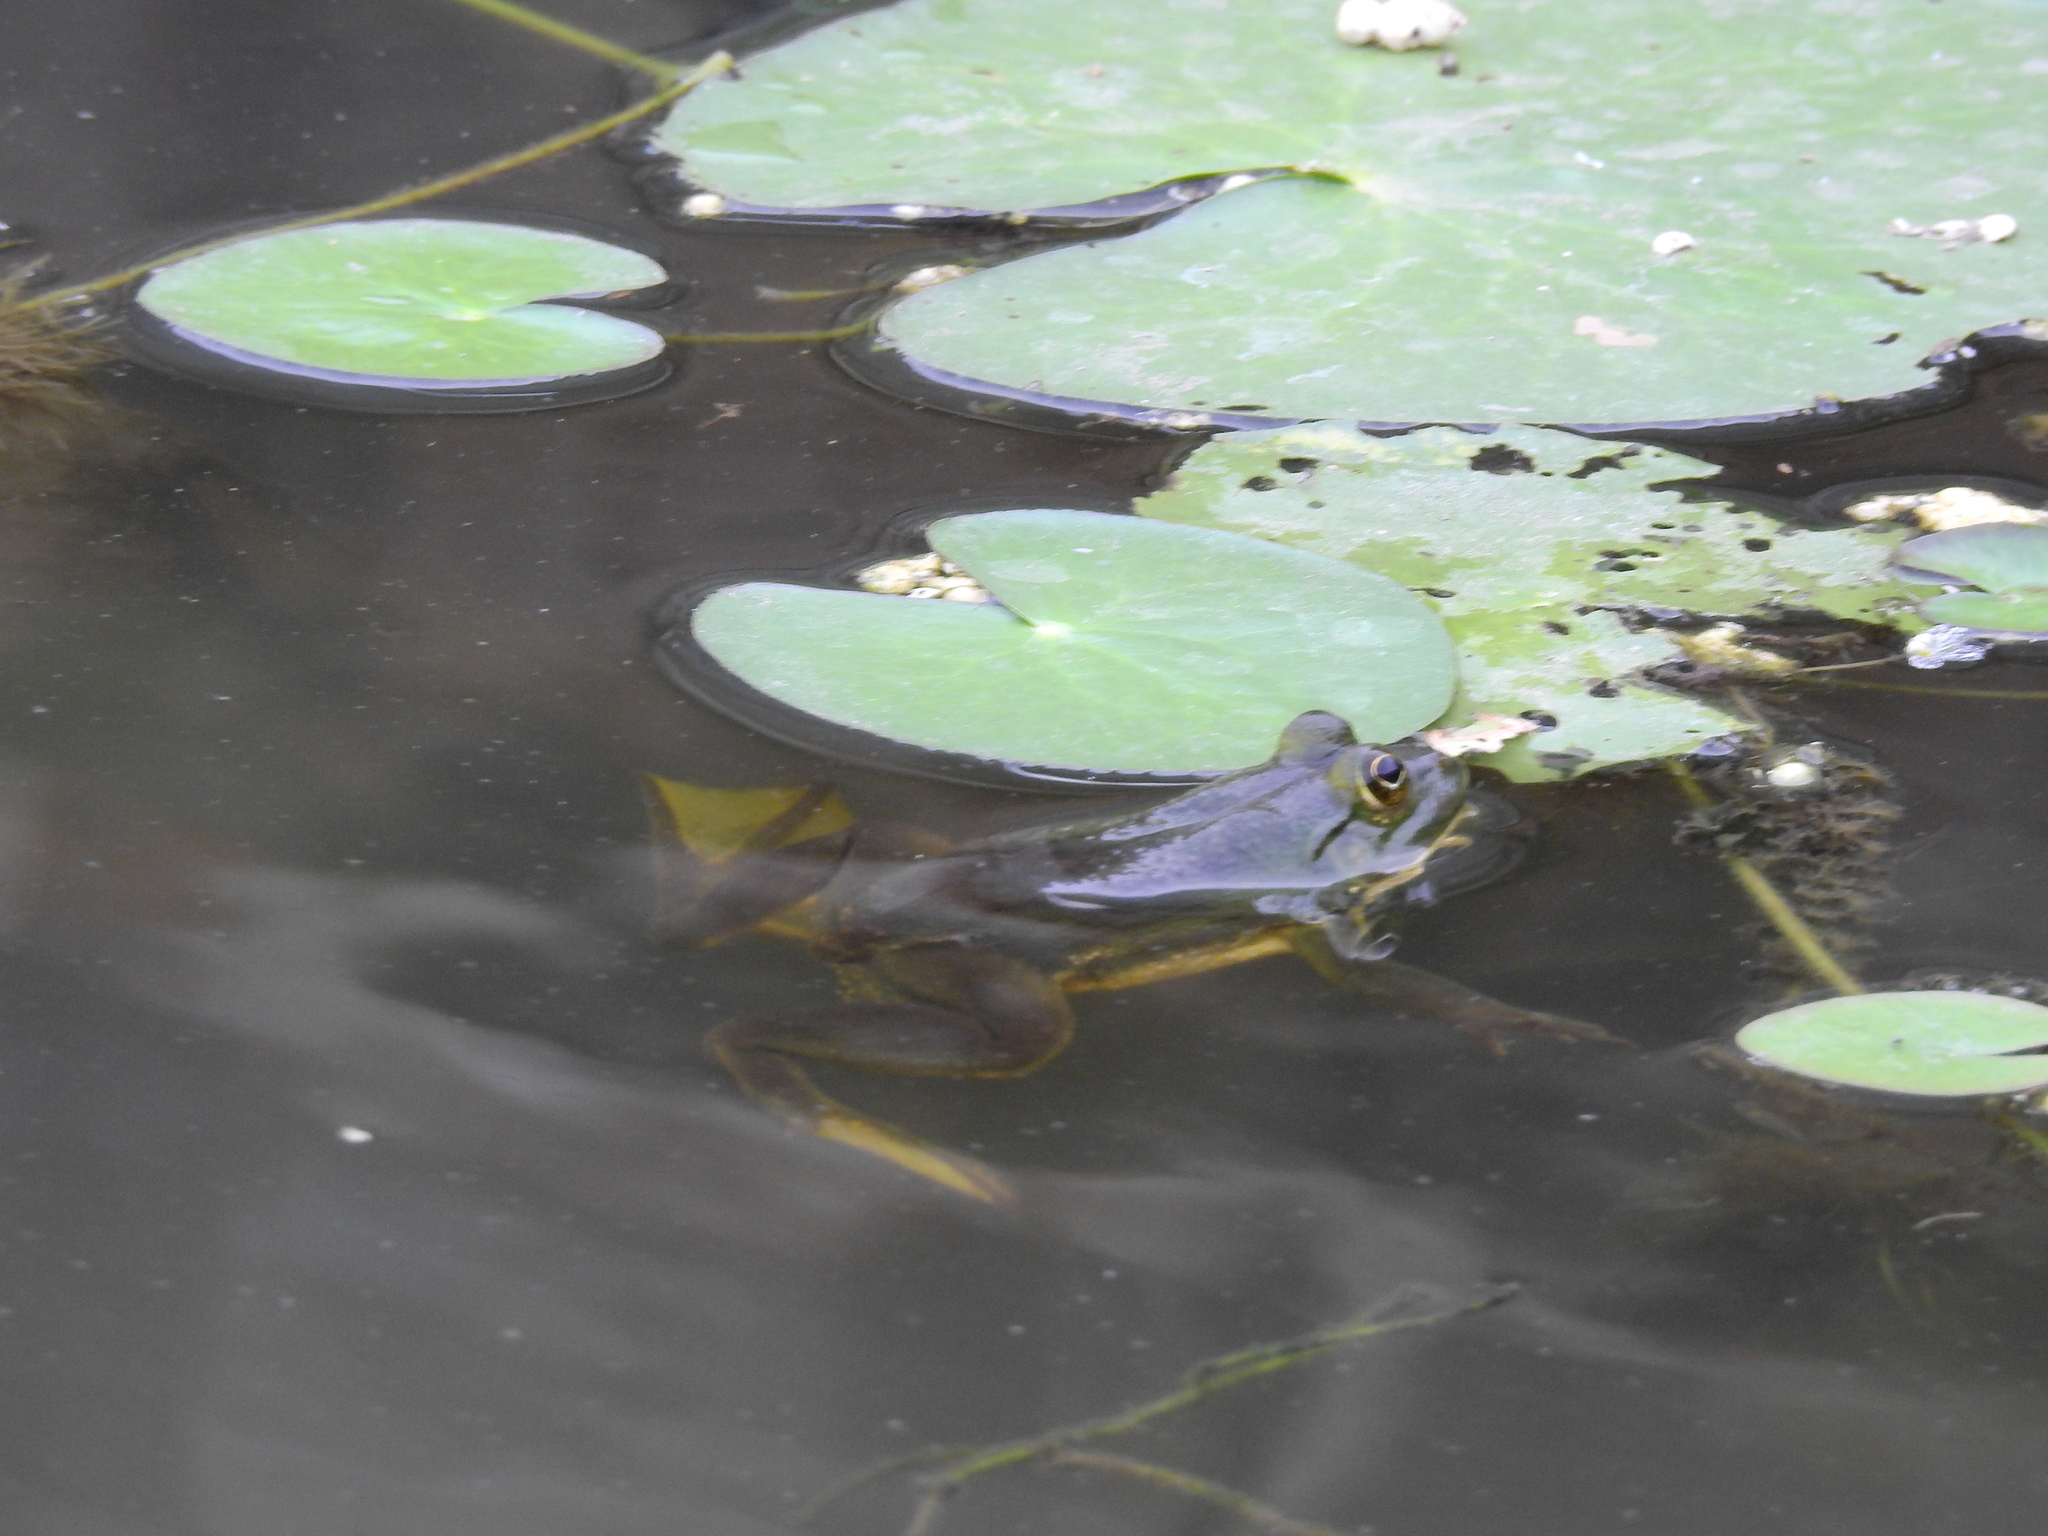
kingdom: Animalia
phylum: Chordata
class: Amphibia
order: Anura
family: Dicroglossidae
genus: Euphlyctis
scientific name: Euphlyctis hexadactylus
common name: Indian green frog
